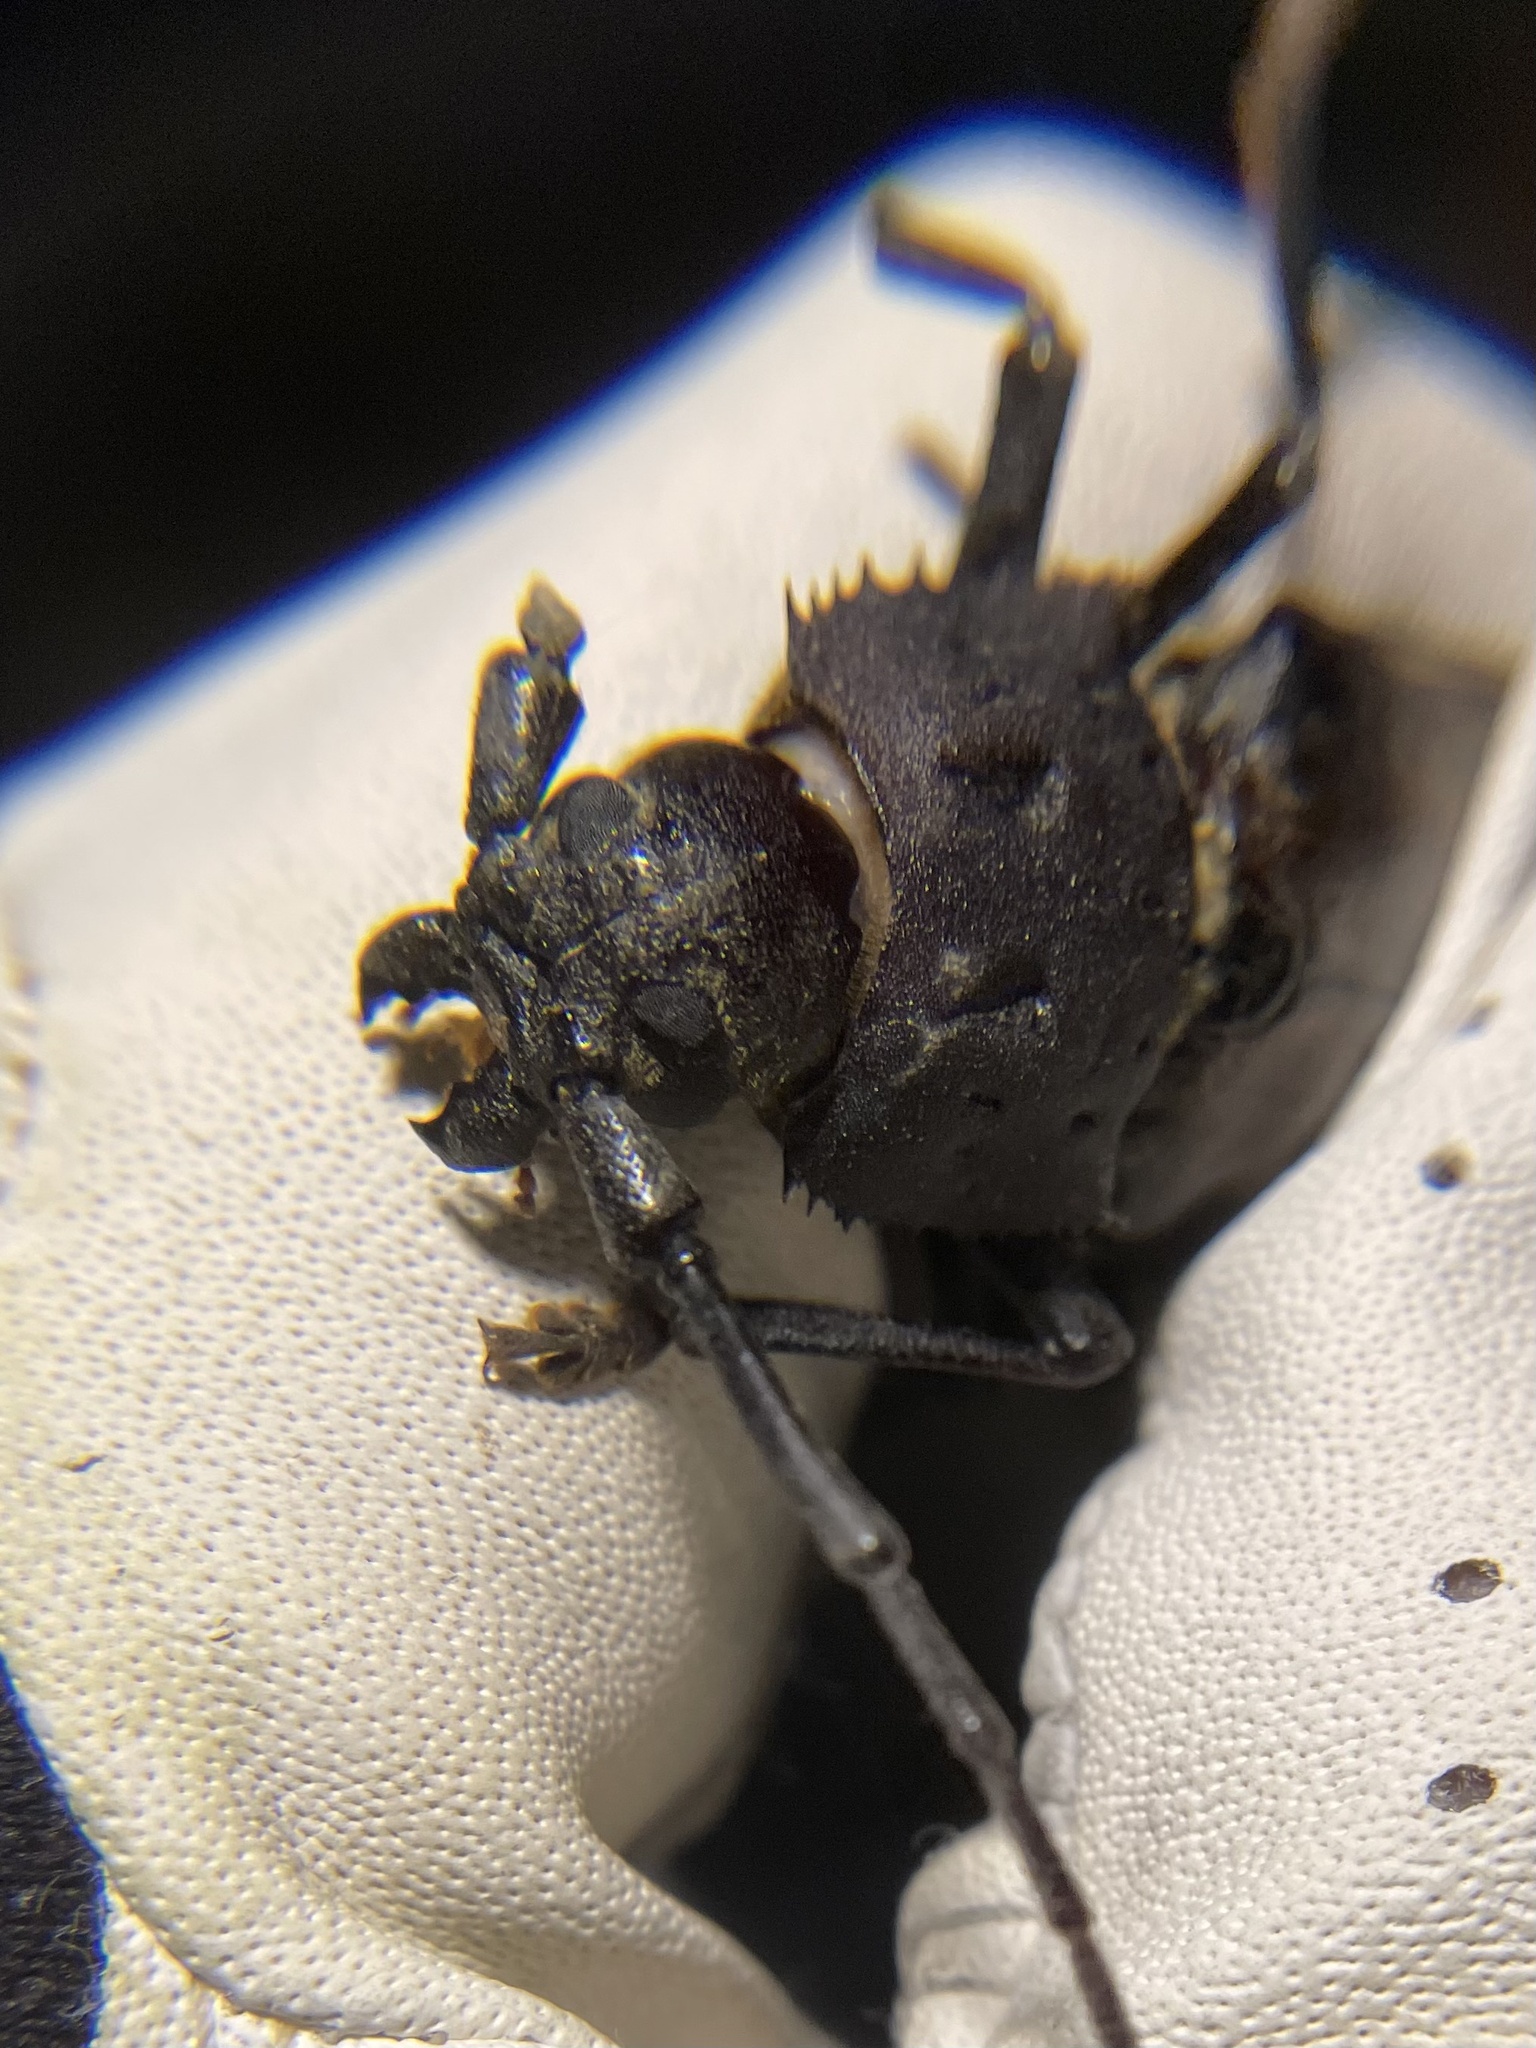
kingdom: Animalia
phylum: Arthropoda
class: Insecta
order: Coleoptera
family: Cerambycidae
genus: Trichocnemis
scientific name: Trichocnemis spiculatus
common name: Long-horned beetle
